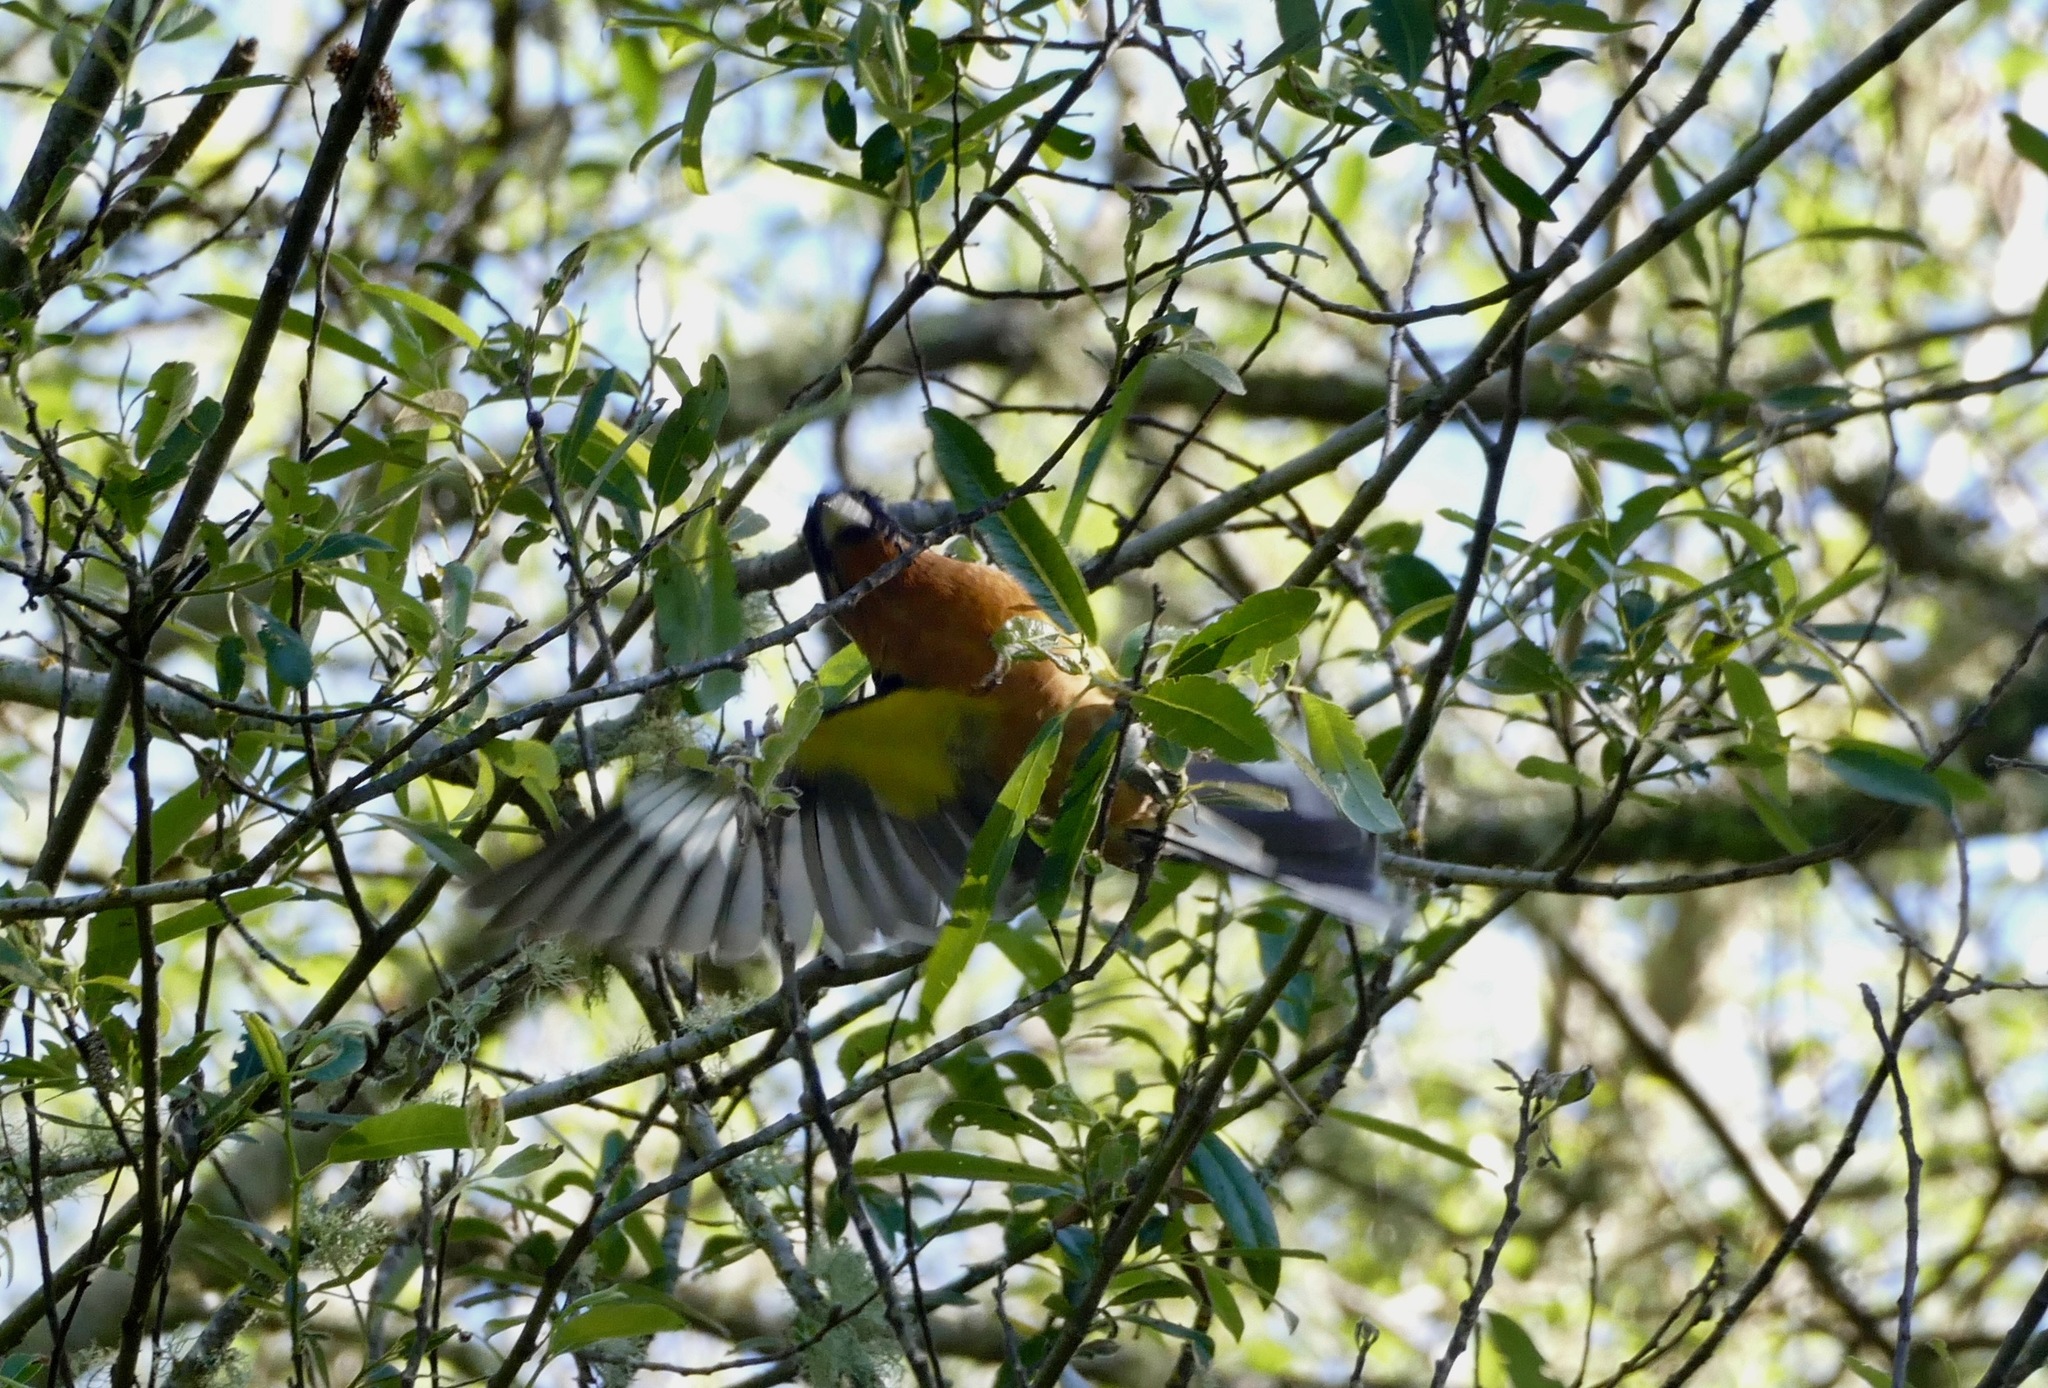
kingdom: Animalia
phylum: Chordata
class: Aves
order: Passeriformes
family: Cardinalidae
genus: Pheucticus
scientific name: Pheucticus melanocephalus
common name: Black-headed grosbeak
